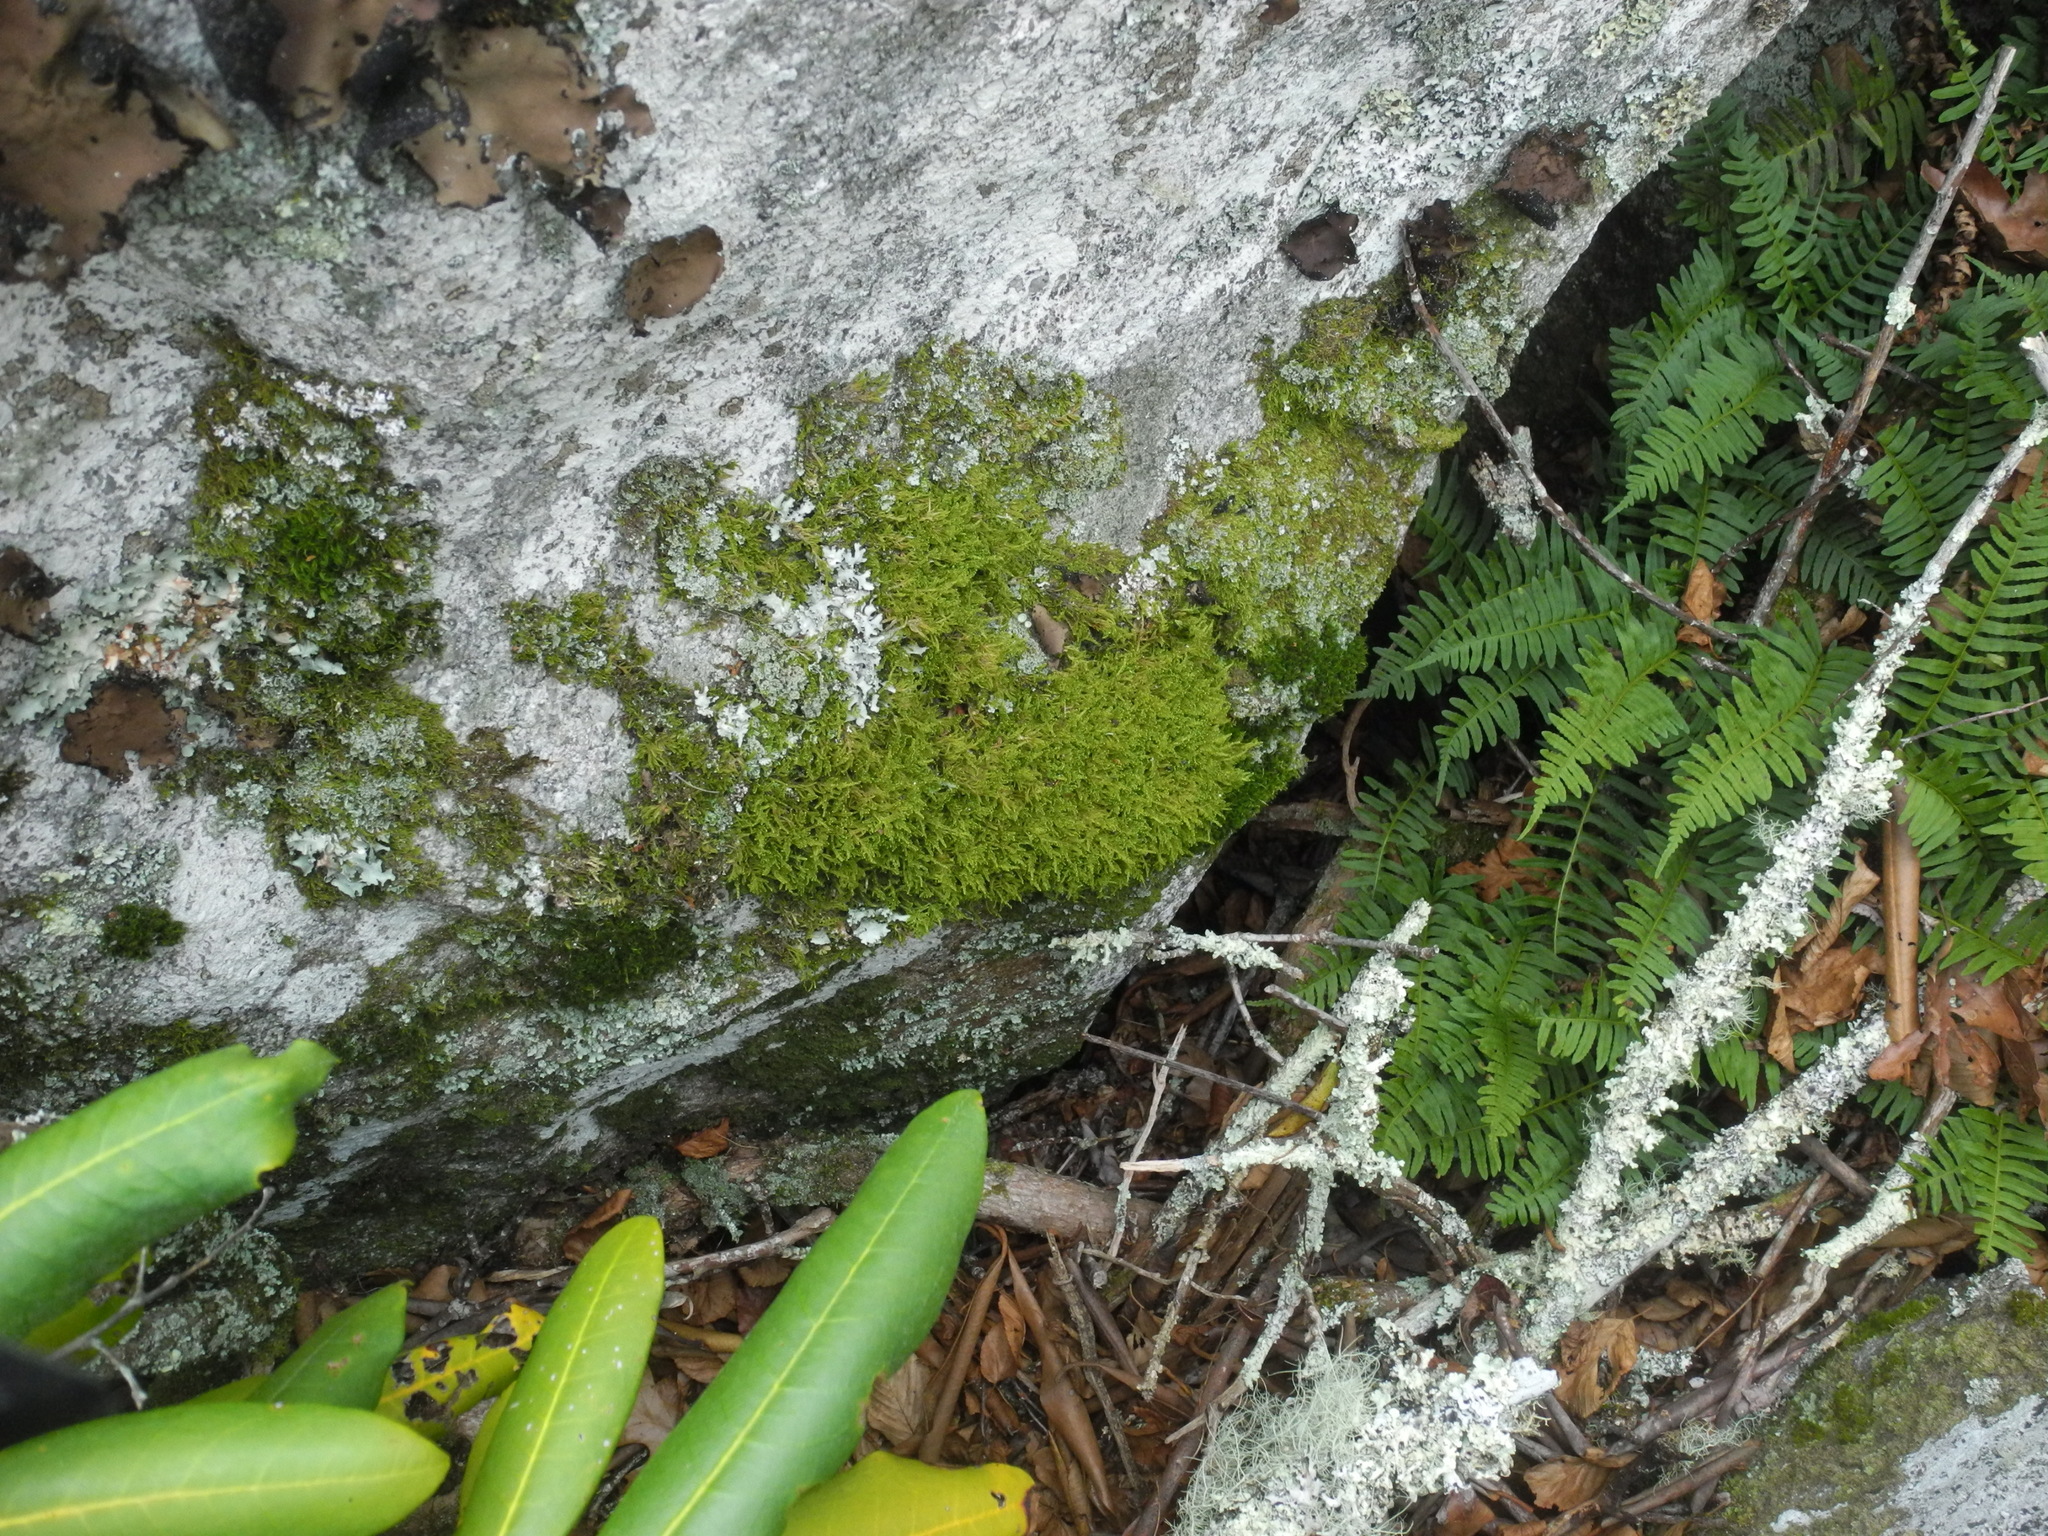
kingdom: Plantae
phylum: Bryophyta
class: Bryopsida
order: Hypnales
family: Callicladiaceae
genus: Callicladium
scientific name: Callicladium imponens
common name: Brocade moss
